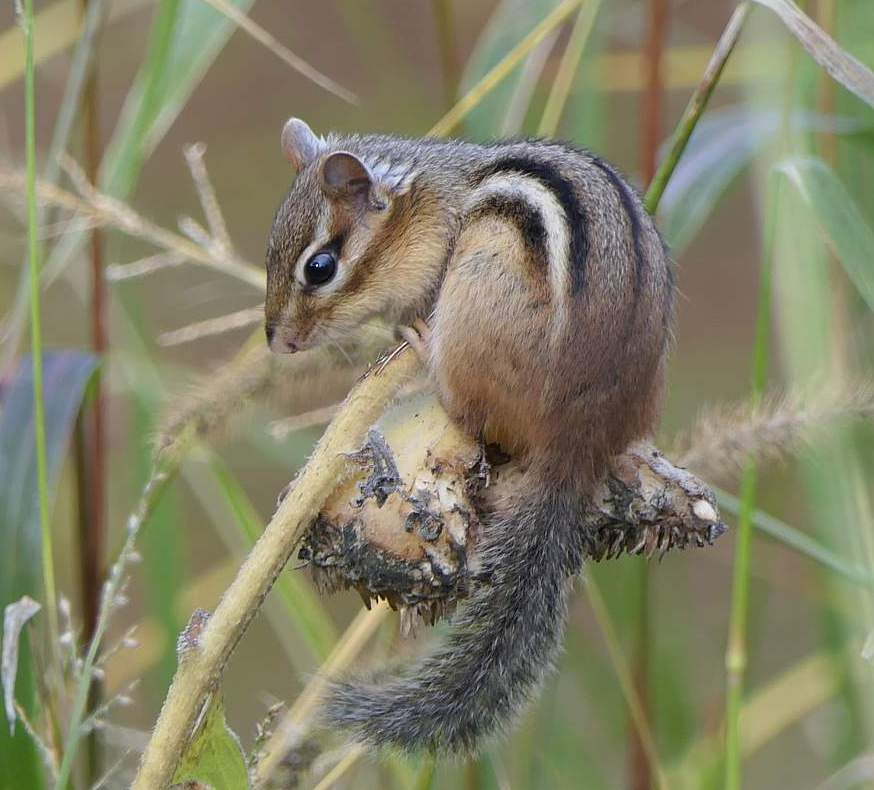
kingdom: Animalia
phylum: Chordata
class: Mammalia
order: Rodentia
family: Sciuridae
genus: Tamias
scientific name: Tamias striatus
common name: Eastern chipmunk
